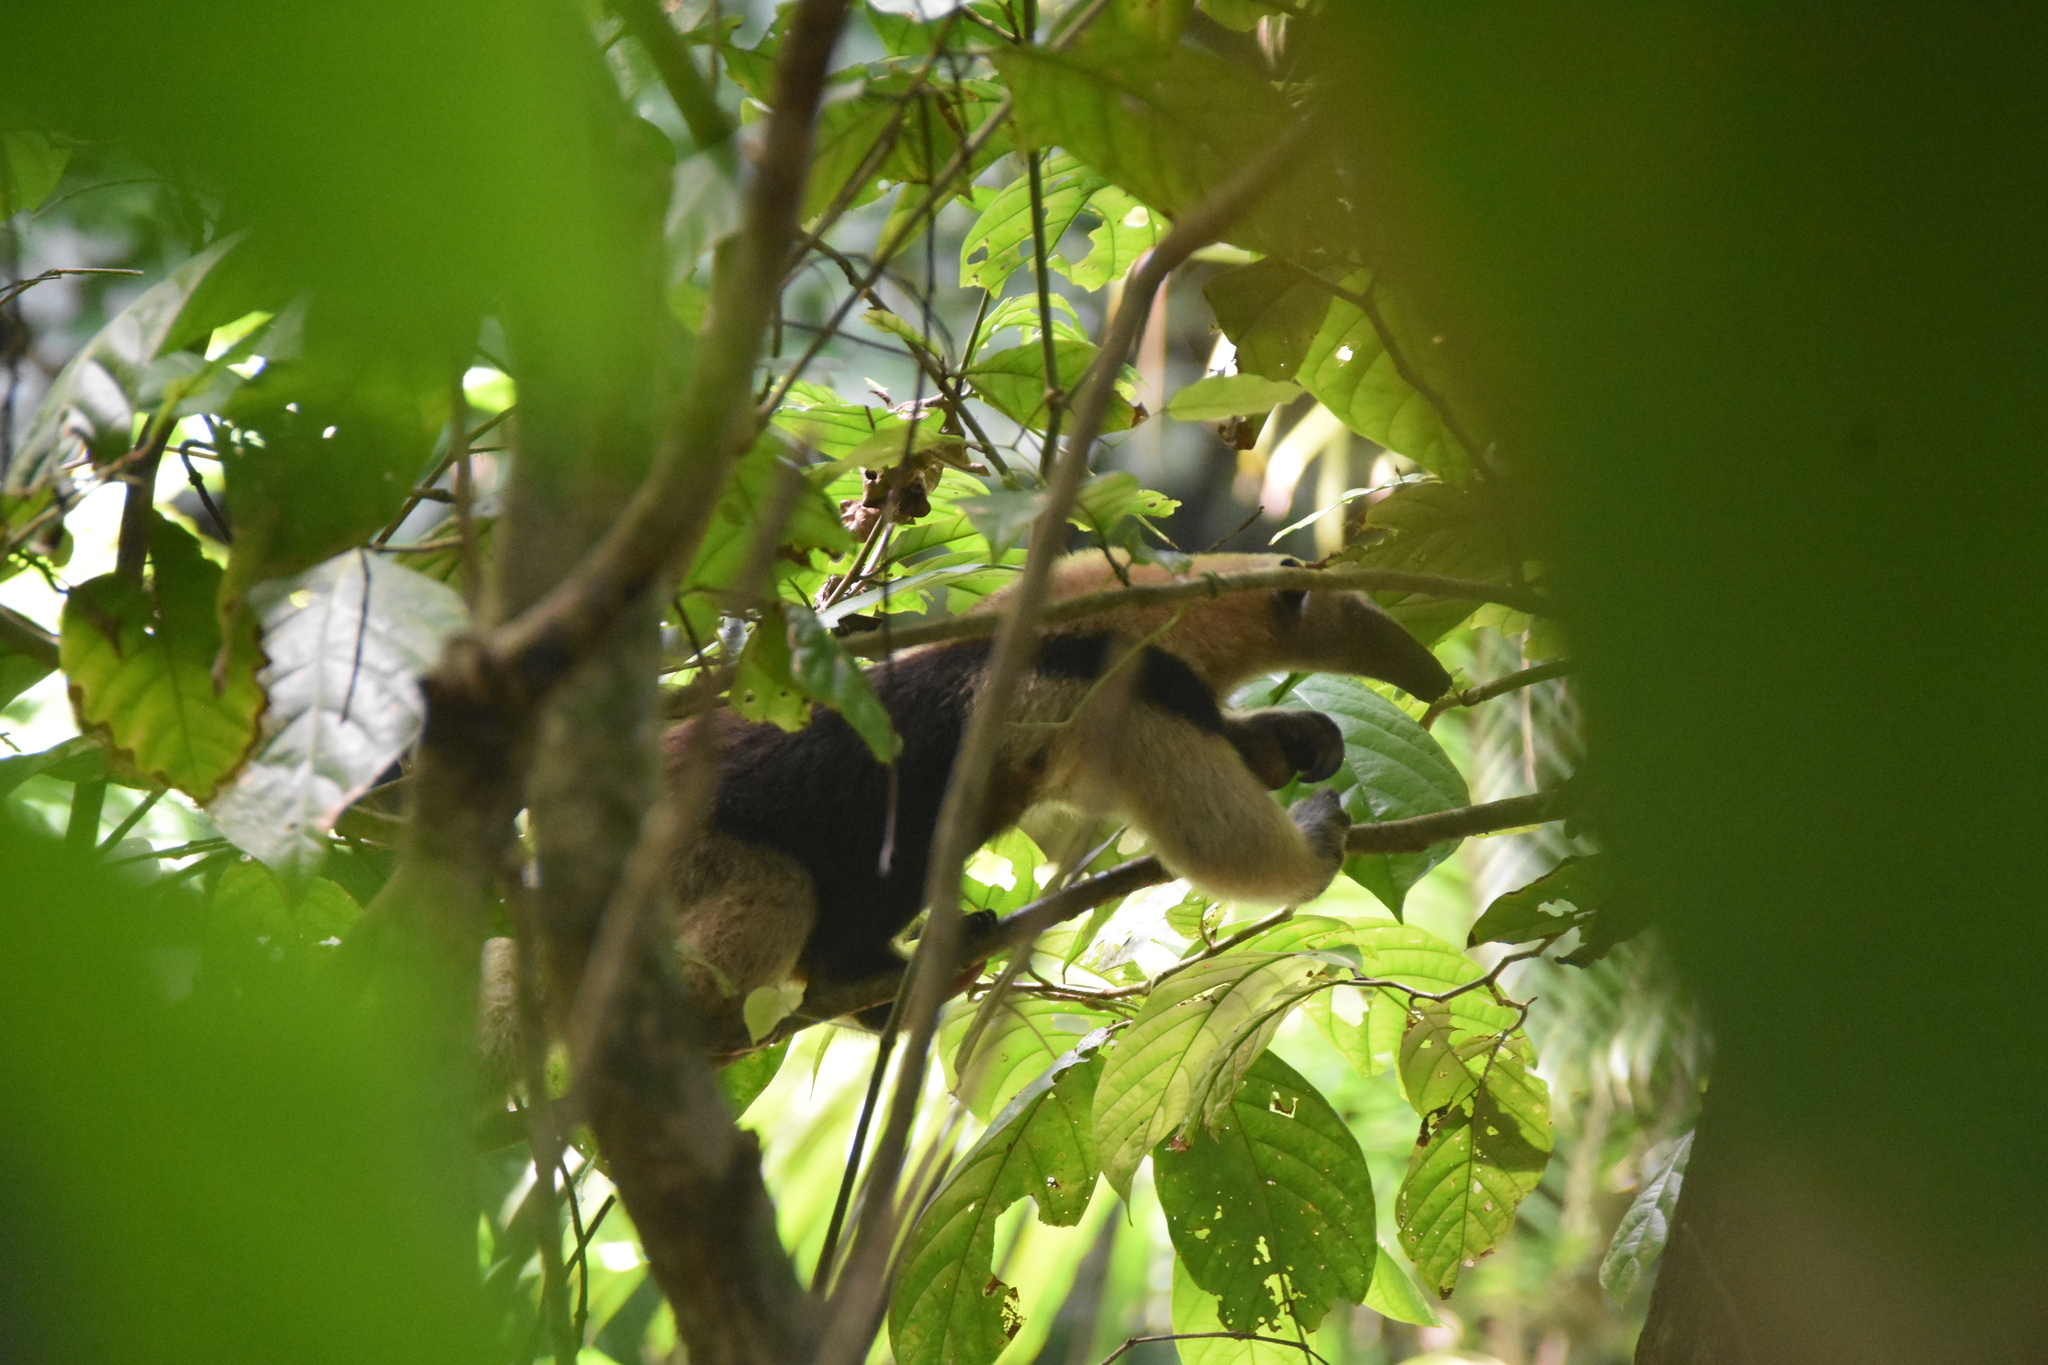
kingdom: Animalia
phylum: Chordata
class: Mammalia
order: Pilosa
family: Myrmecophagidae
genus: Tamandua
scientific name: Tamandua mexicana
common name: Northern tamandua
